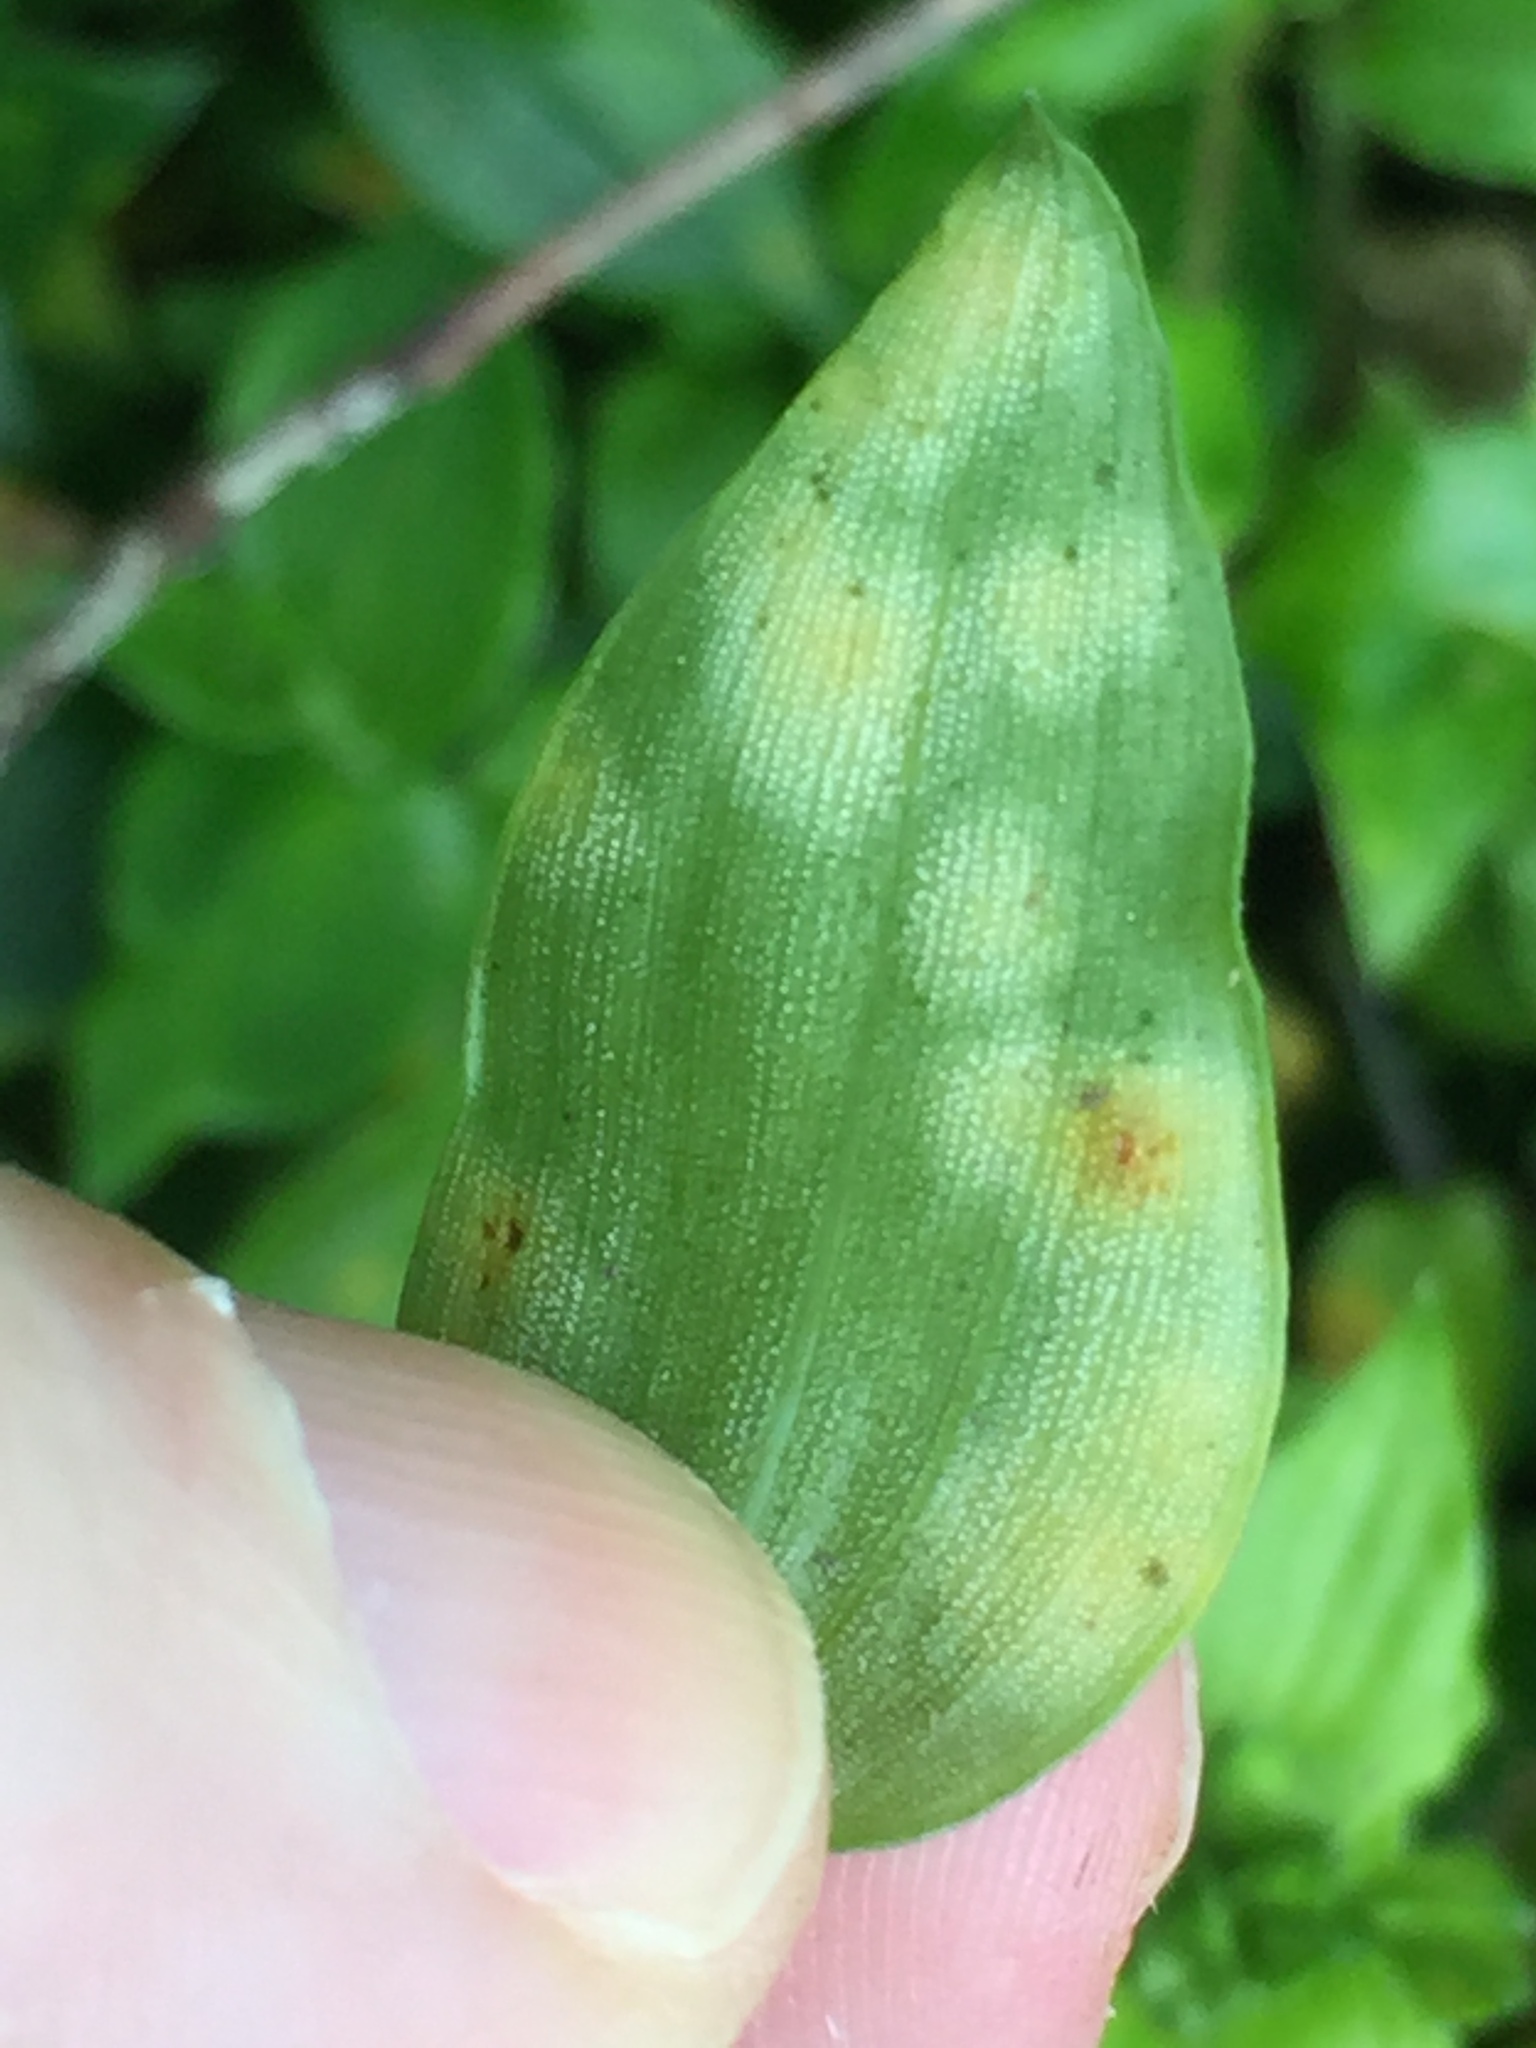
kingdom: Fungi
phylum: Basidiomycota
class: Exobasidiomycetes
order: Exobasidiales
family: Brachybasidiaceae
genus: Kordyana
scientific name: Kordyana brasiliensis
